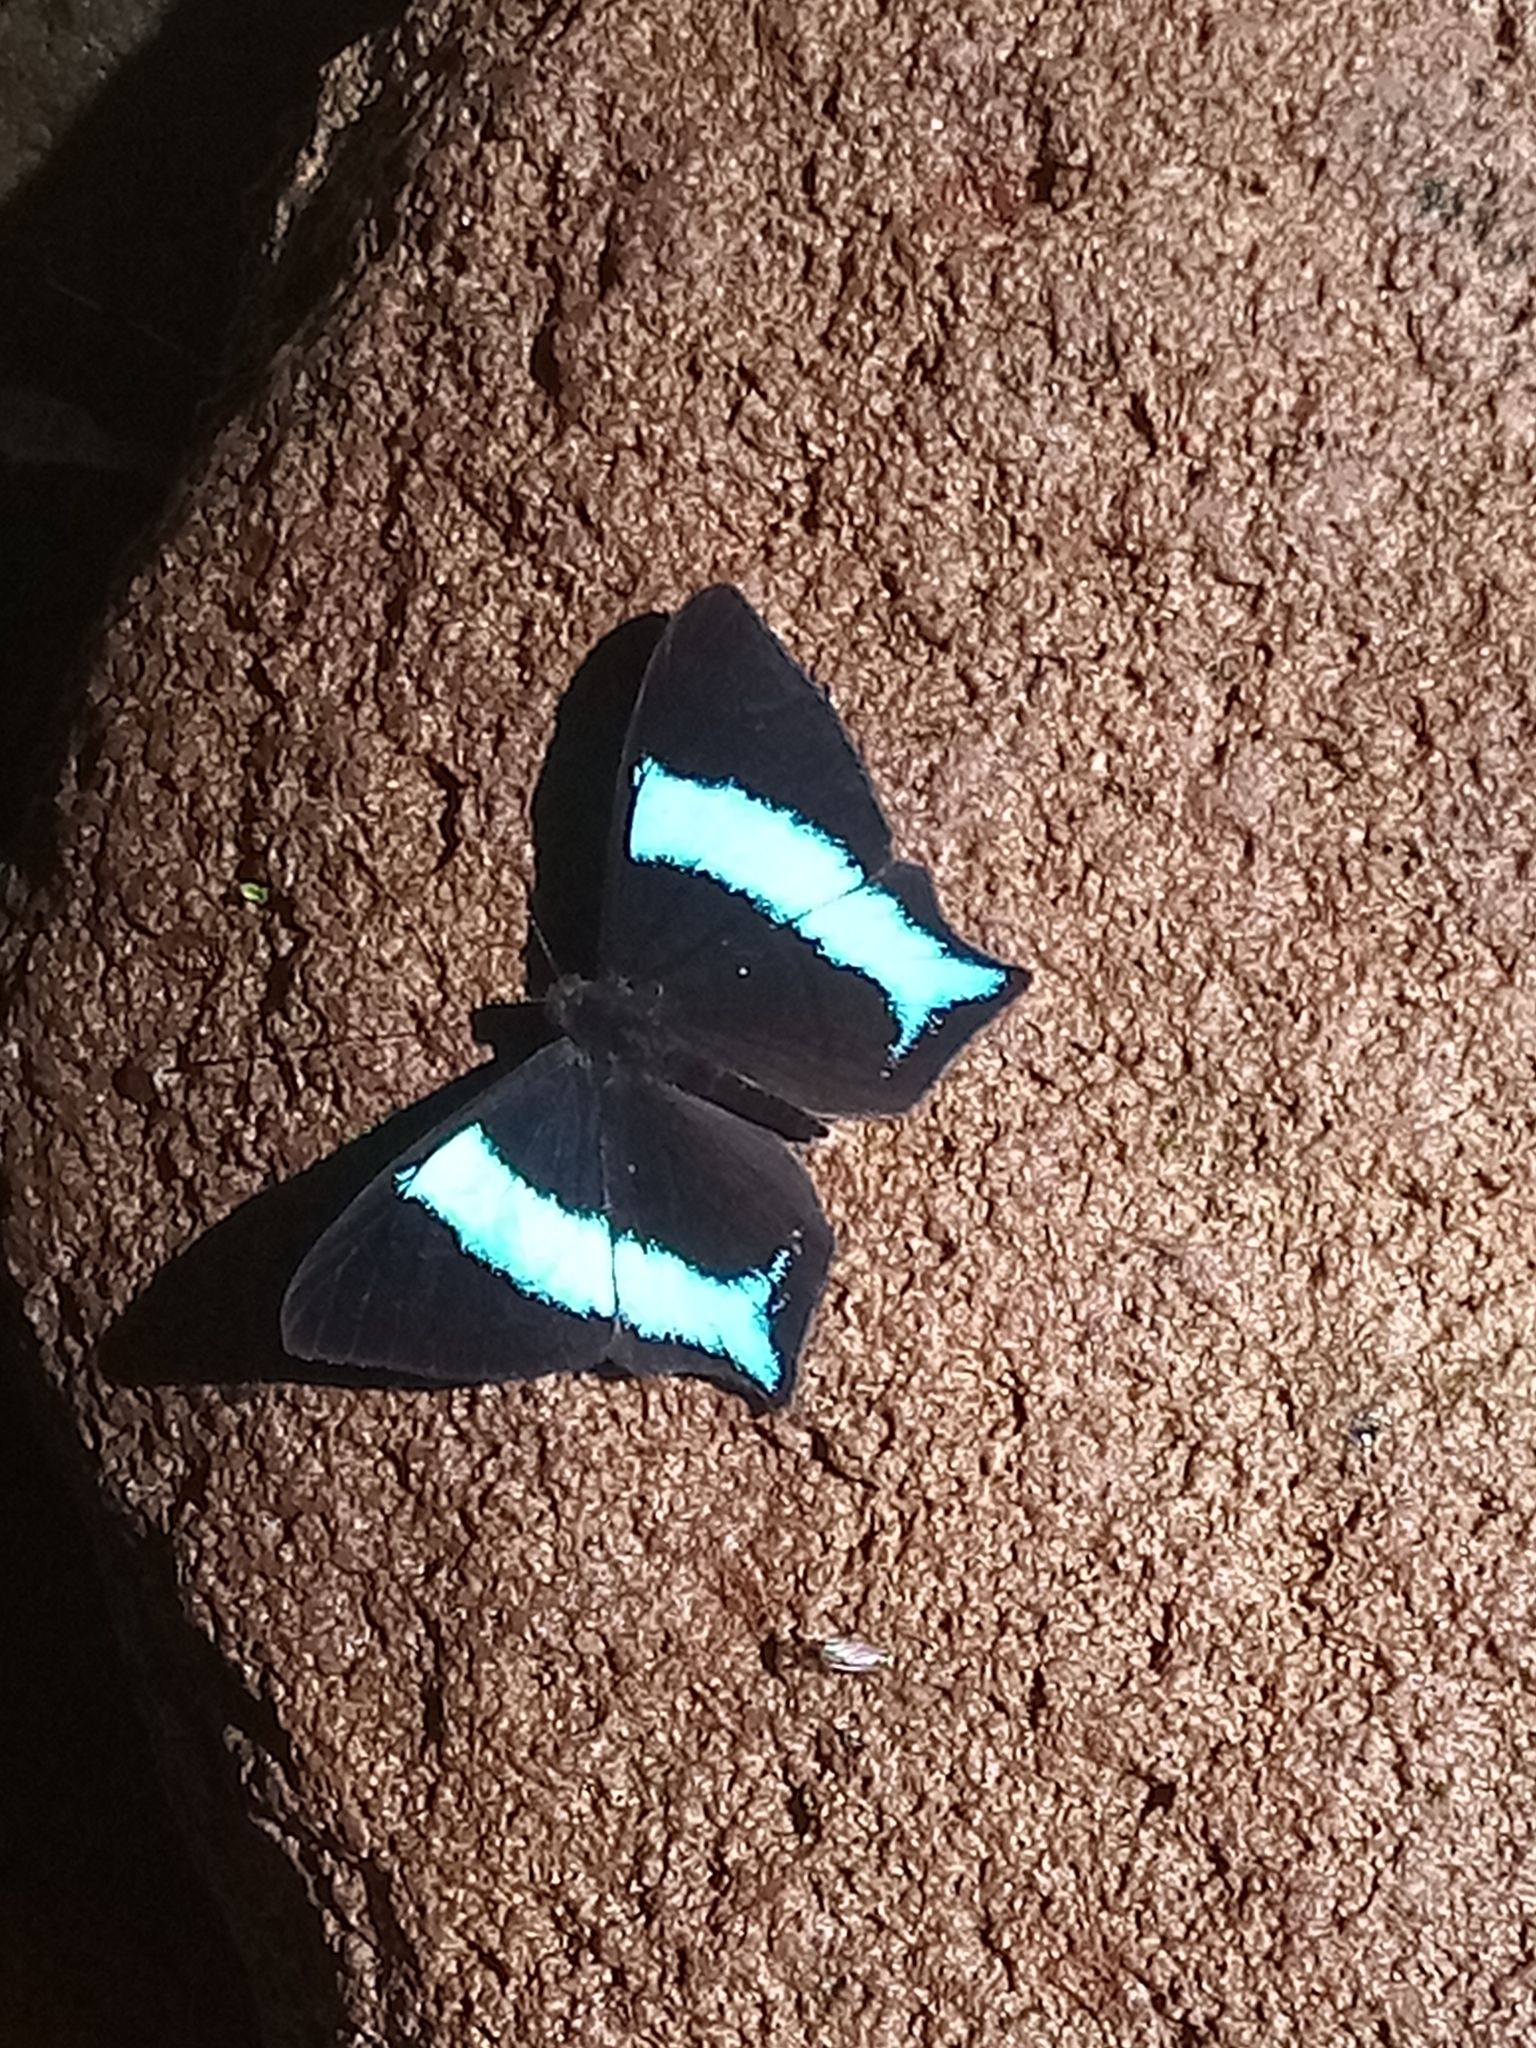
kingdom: Animalia
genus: Mesosemia
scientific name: Mesosemia grandis
